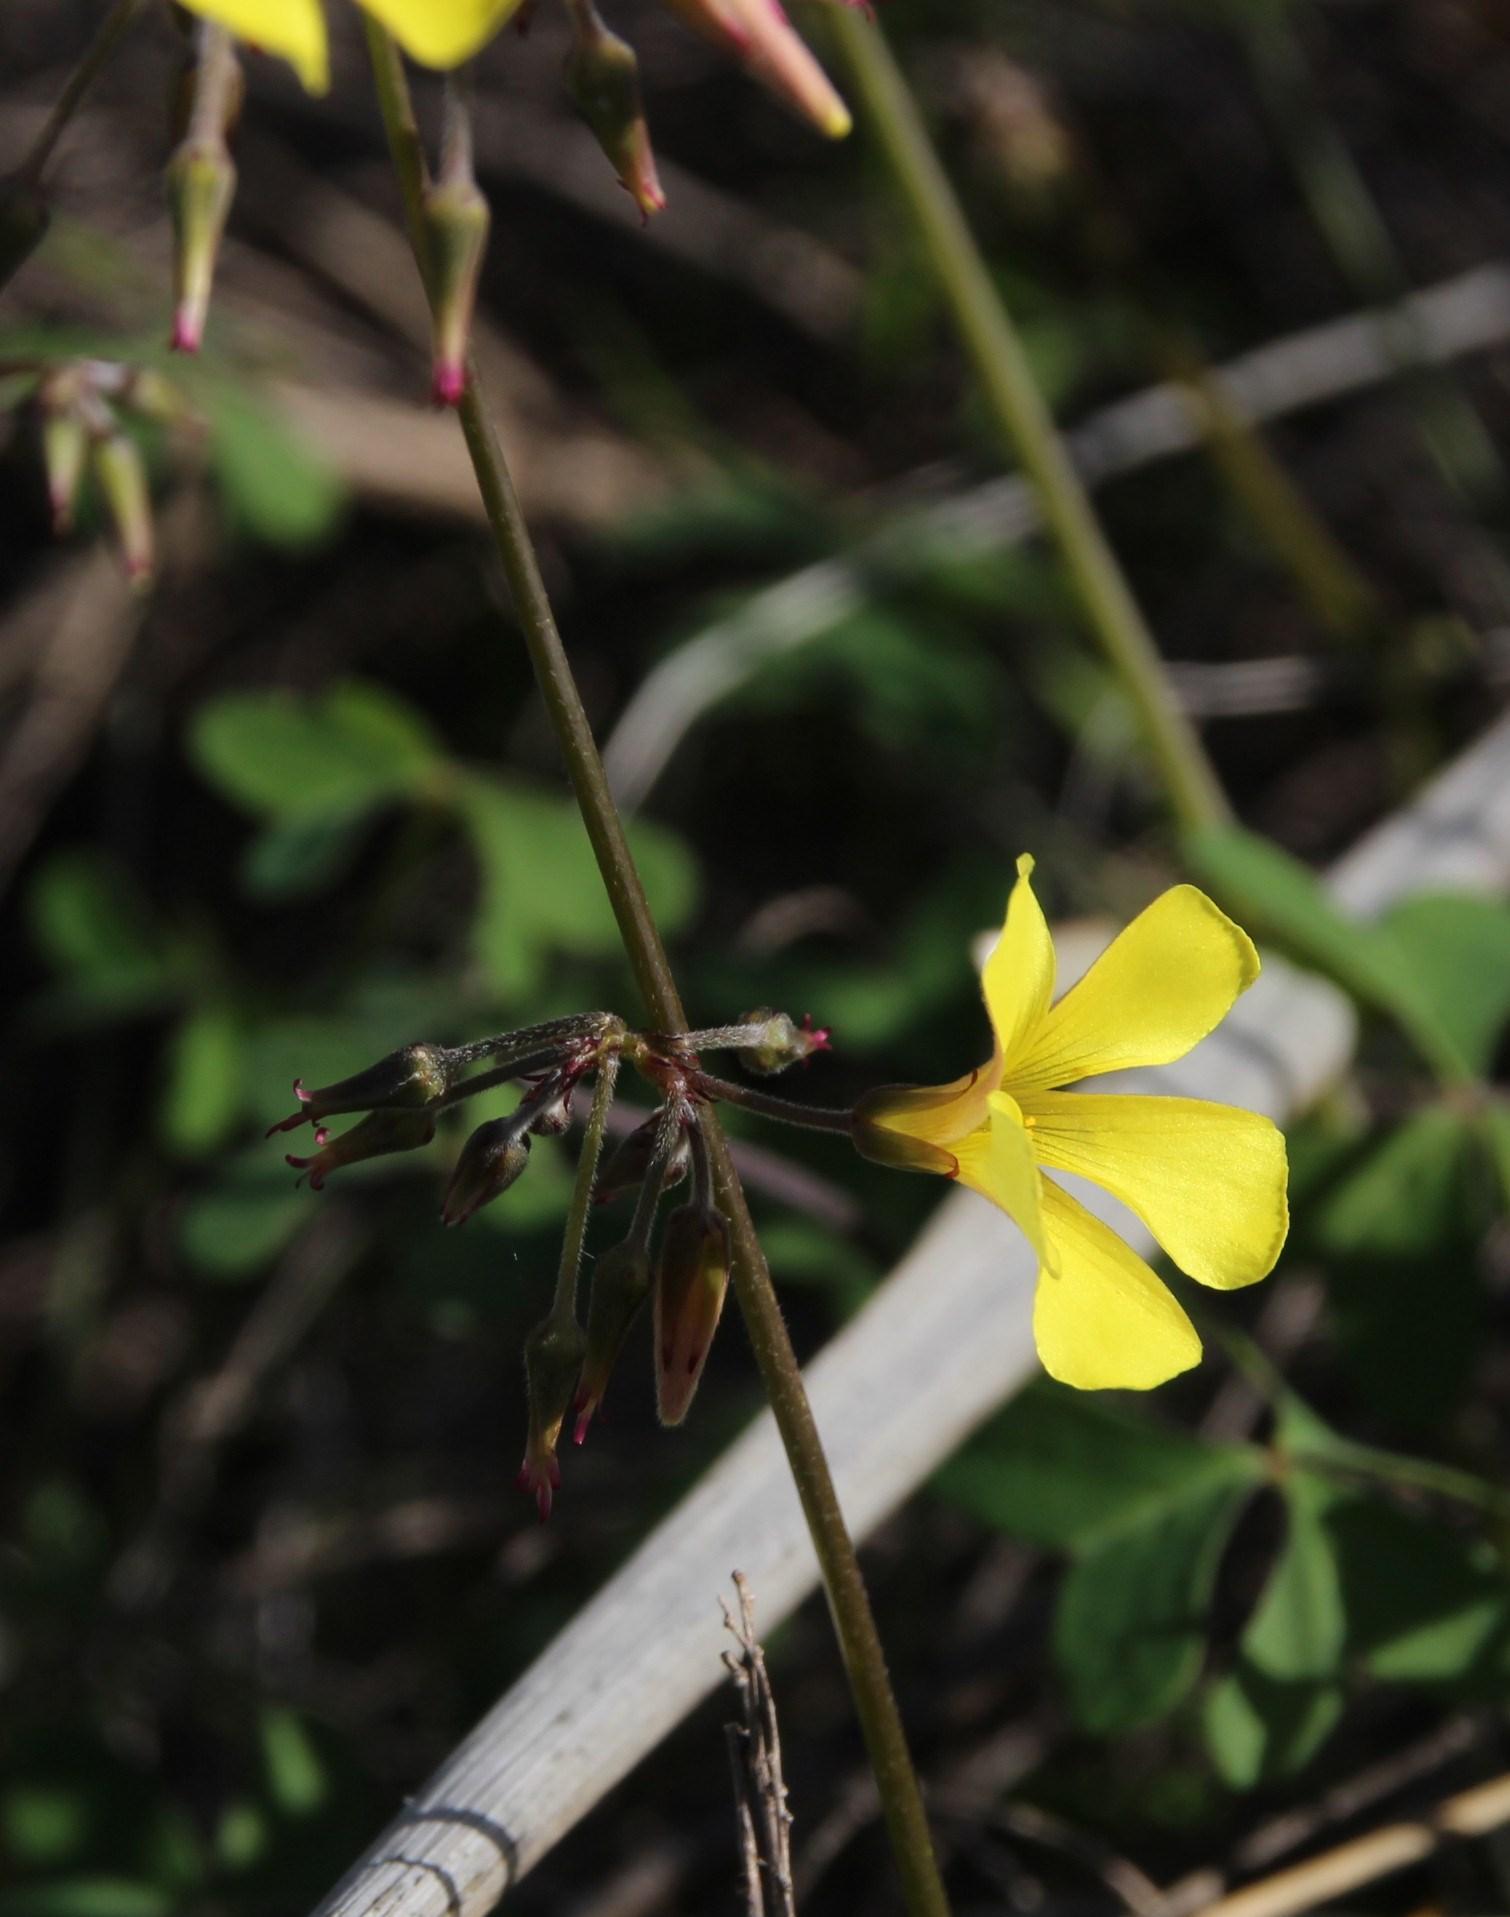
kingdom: Plantae
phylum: Tracheophyta
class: Magnoliopsida
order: Oxalidales
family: Oxalidaceae
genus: Oxalis
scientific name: Oxalis pes-caprae
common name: Bermuda-buttercup
